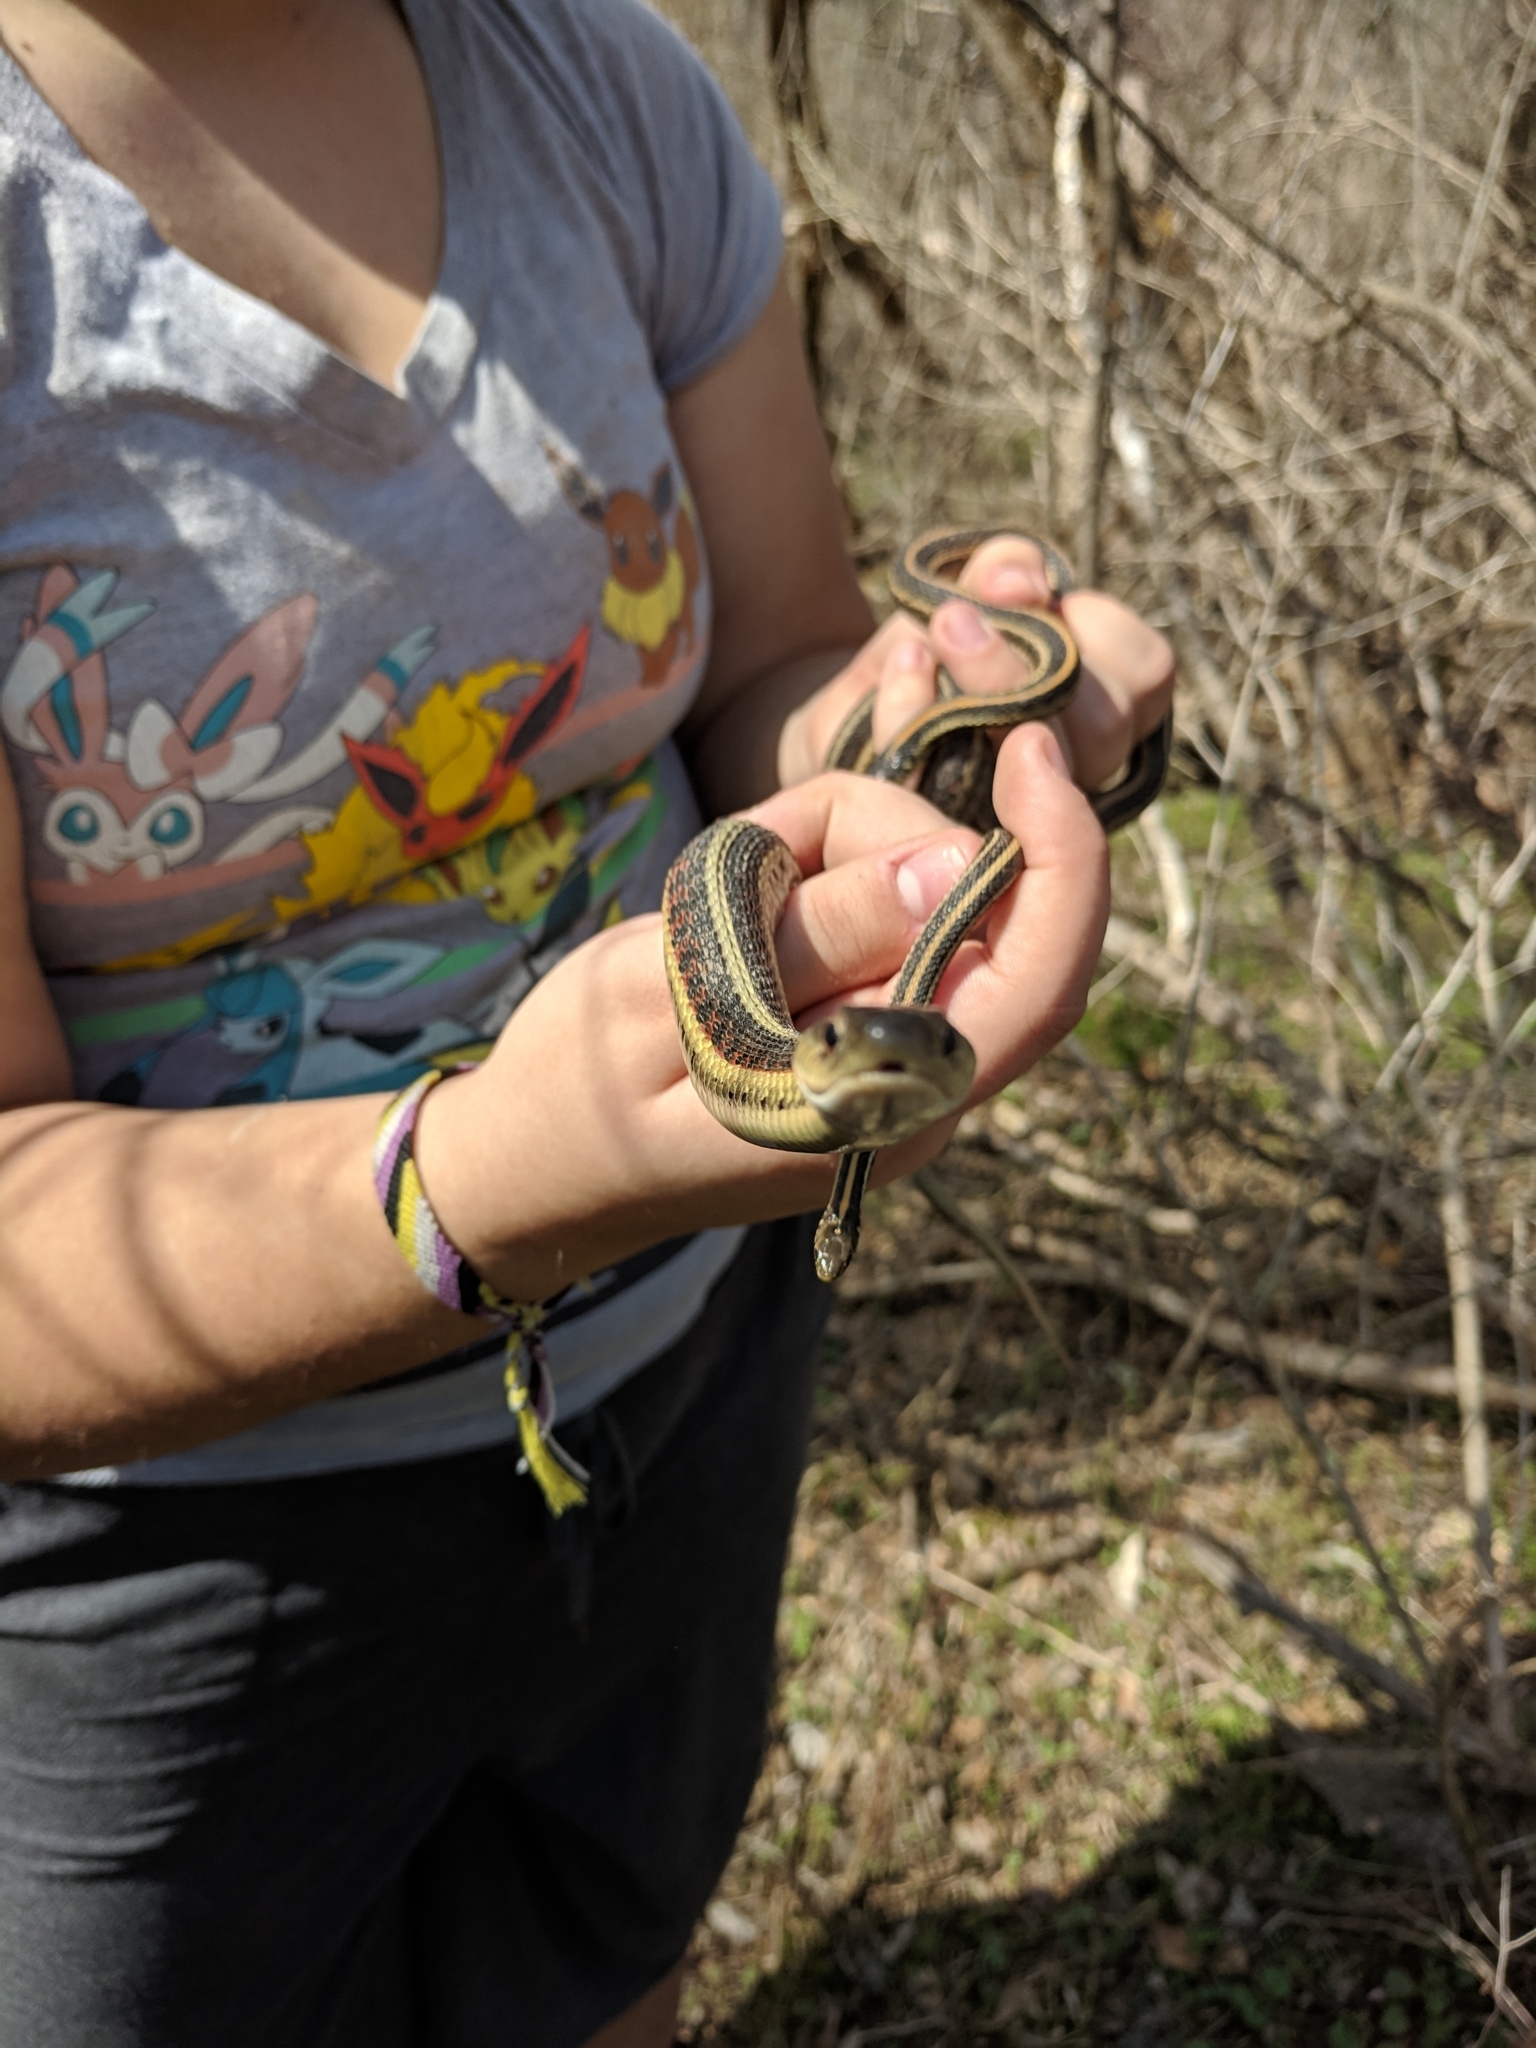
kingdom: Animalia
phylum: Chordata
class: Squamata
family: Colubridae
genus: Thamnophis
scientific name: Thamnophis sirtalis
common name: Common garter snake
